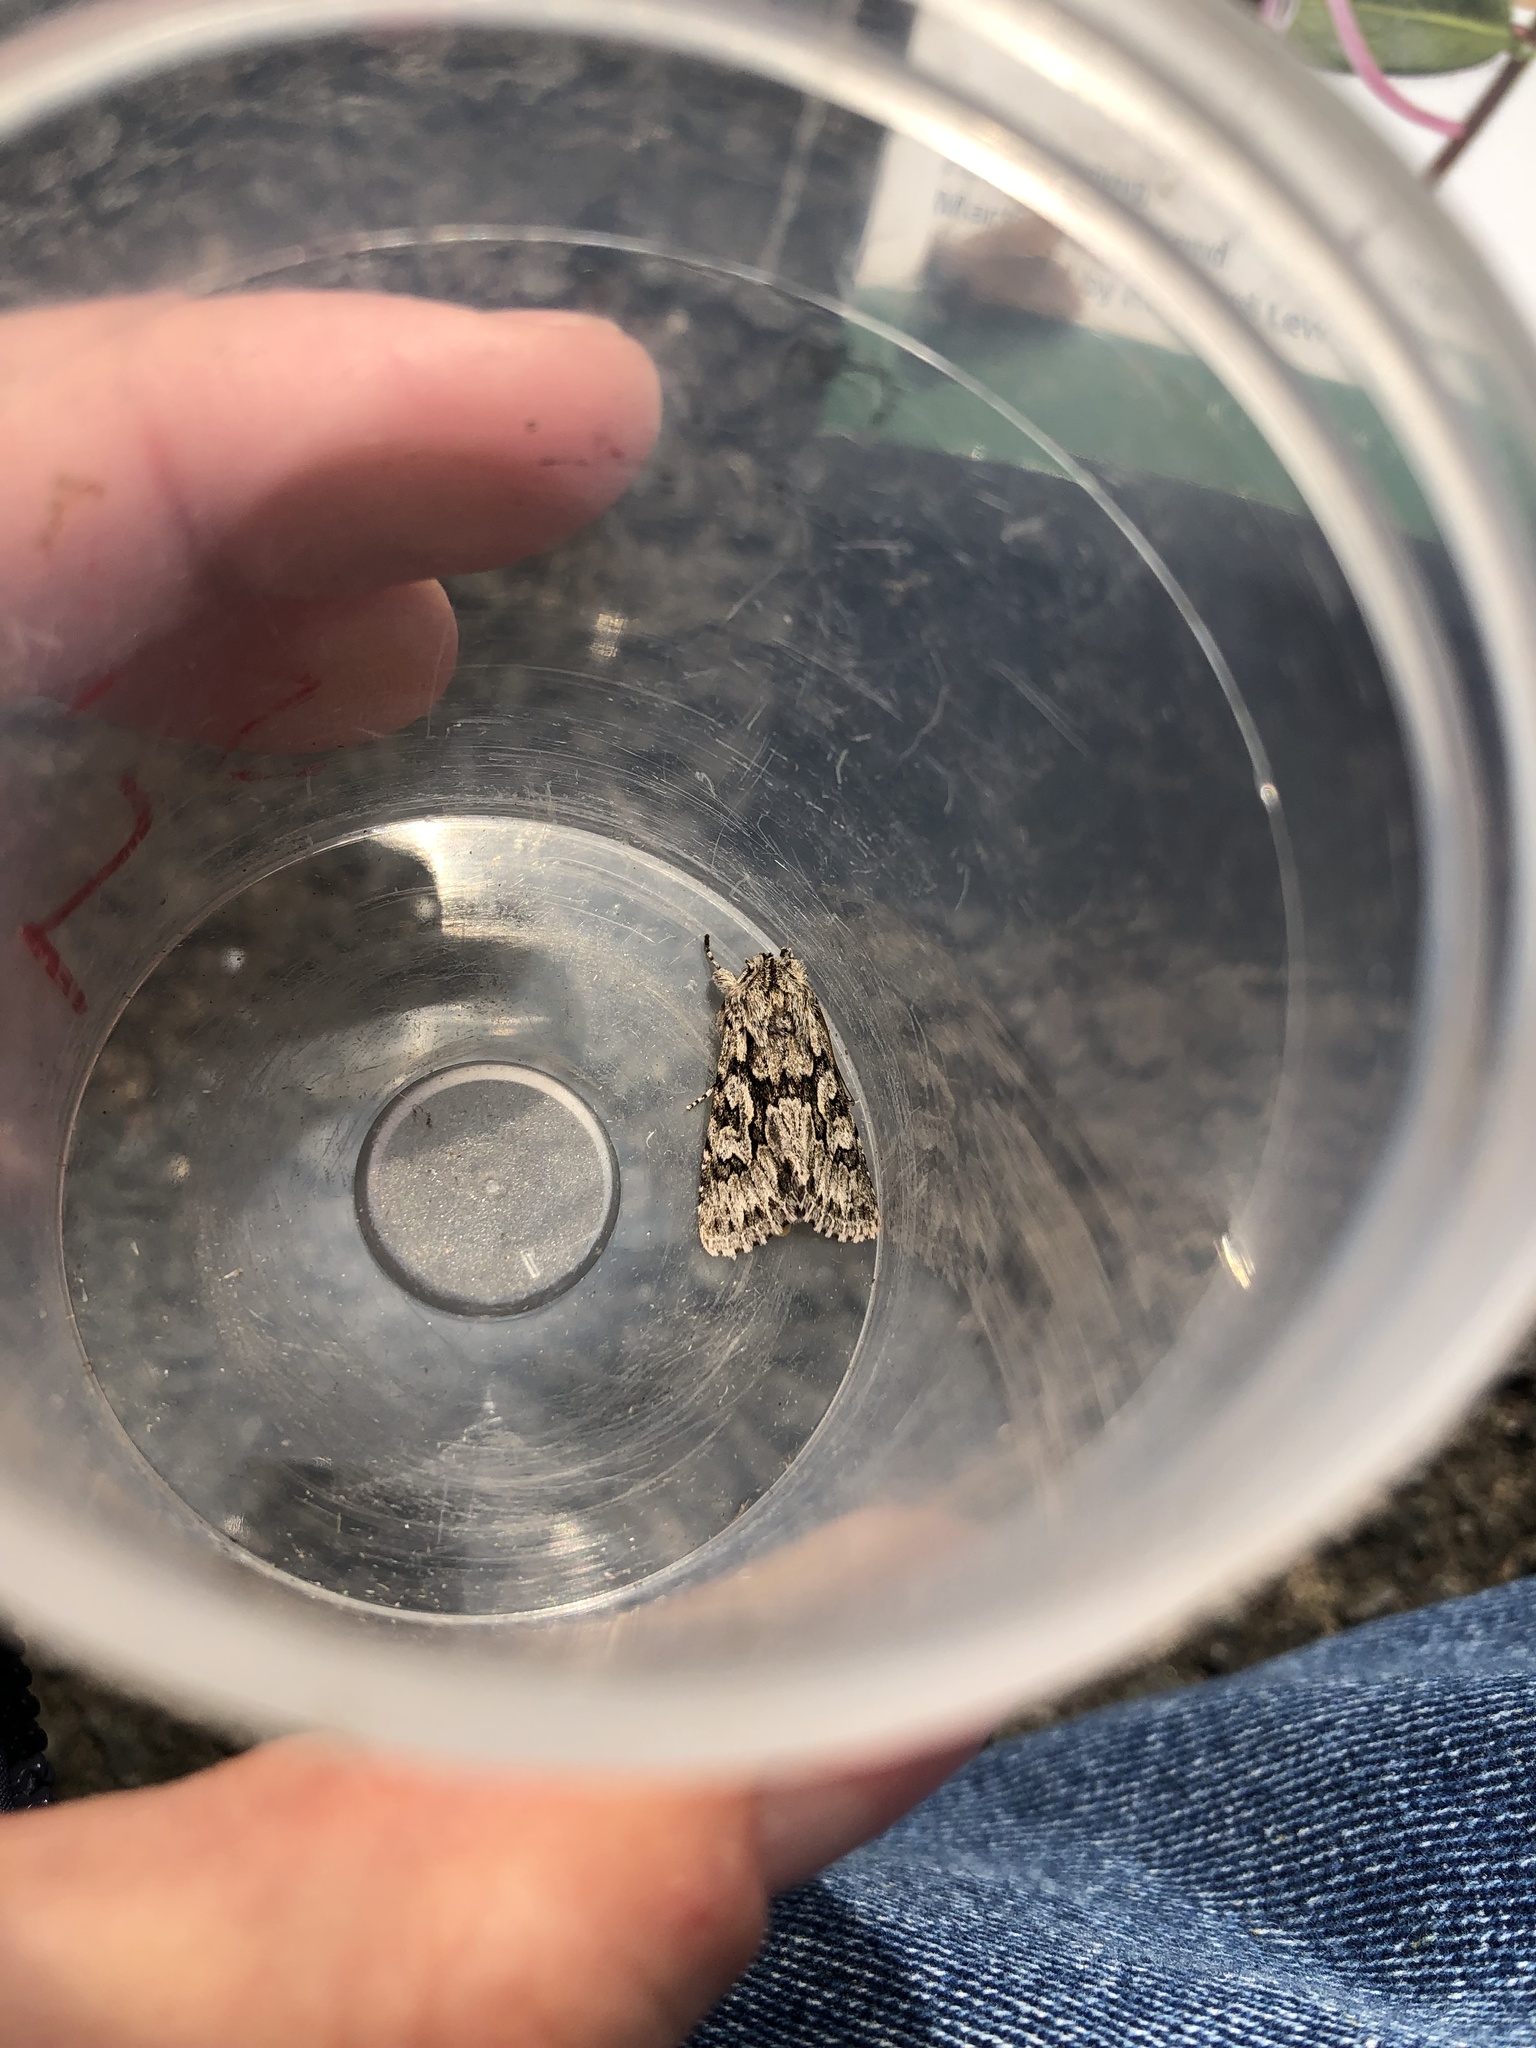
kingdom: Animalia
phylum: Arthropoda
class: Insecta
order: Lepidoptera
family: Noctuidae
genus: Xylocampa
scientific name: Xylocampa areola
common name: Early grey
